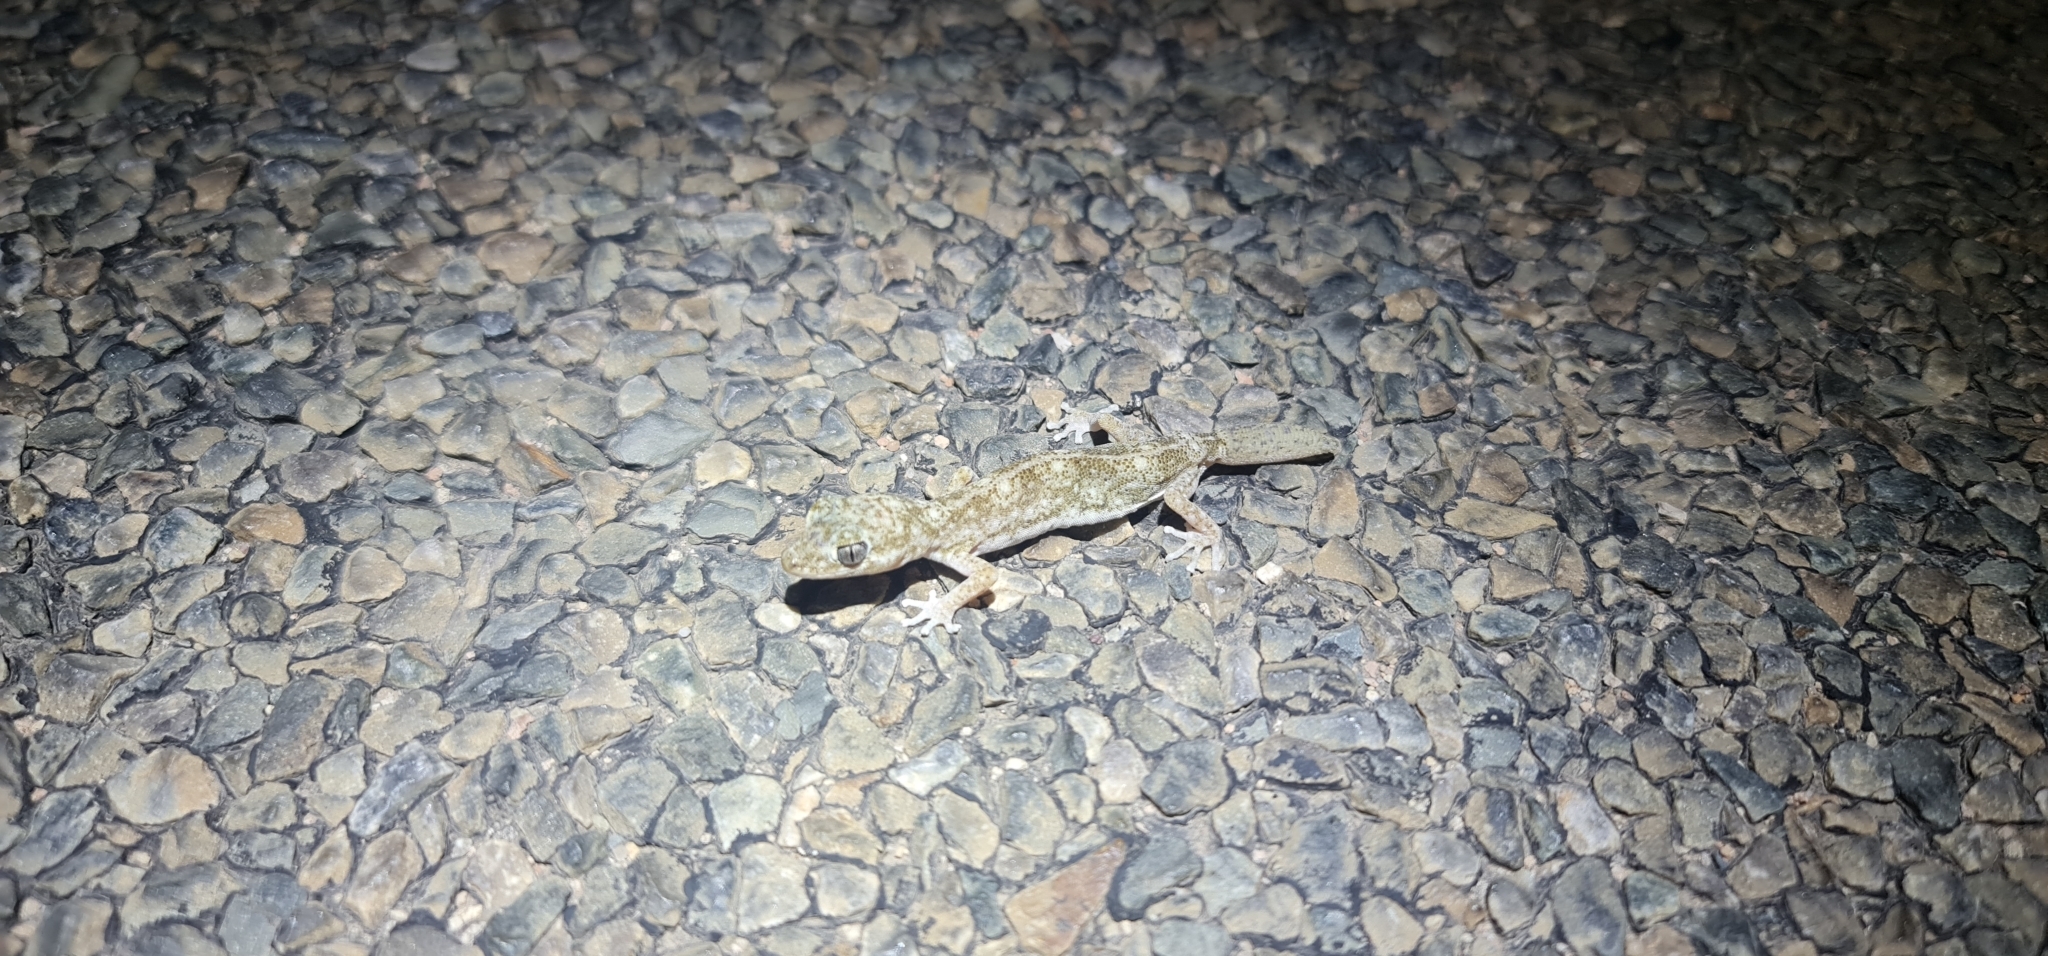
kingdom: Animalia
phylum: Chordata
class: Squamata
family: Diplodactylidae
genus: Diplodactylus
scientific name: Diplodactylus tessellatus
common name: Tesselated gecko
